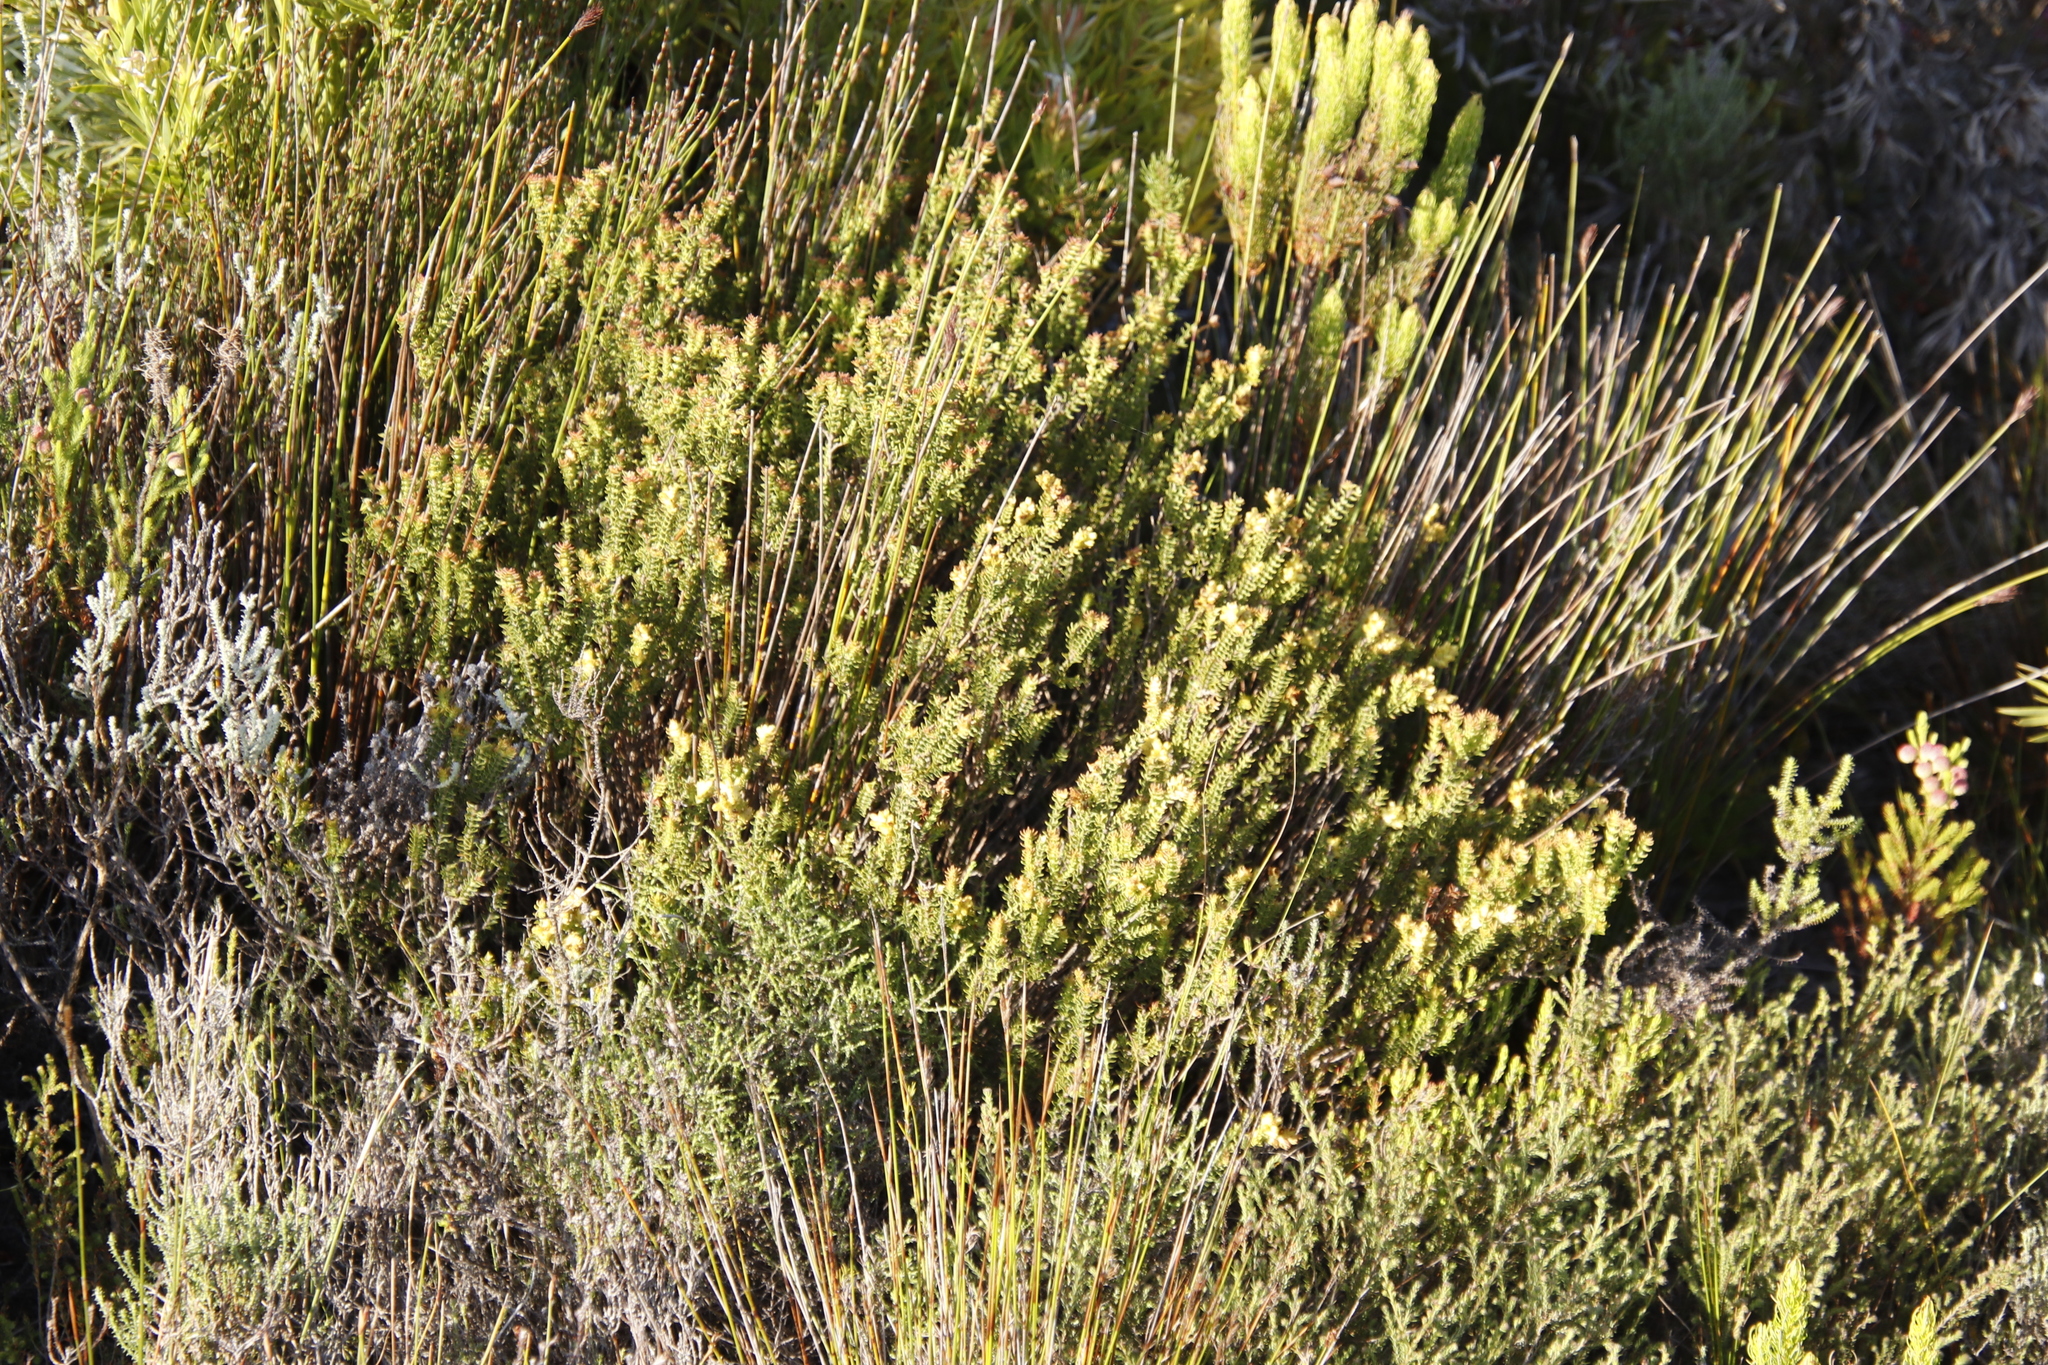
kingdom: Plantae
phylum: Tracheophyta
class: Magnoliopsida
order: Myrtales
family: Penaeaceae
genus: Penaea
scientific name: Penaea mucronata
